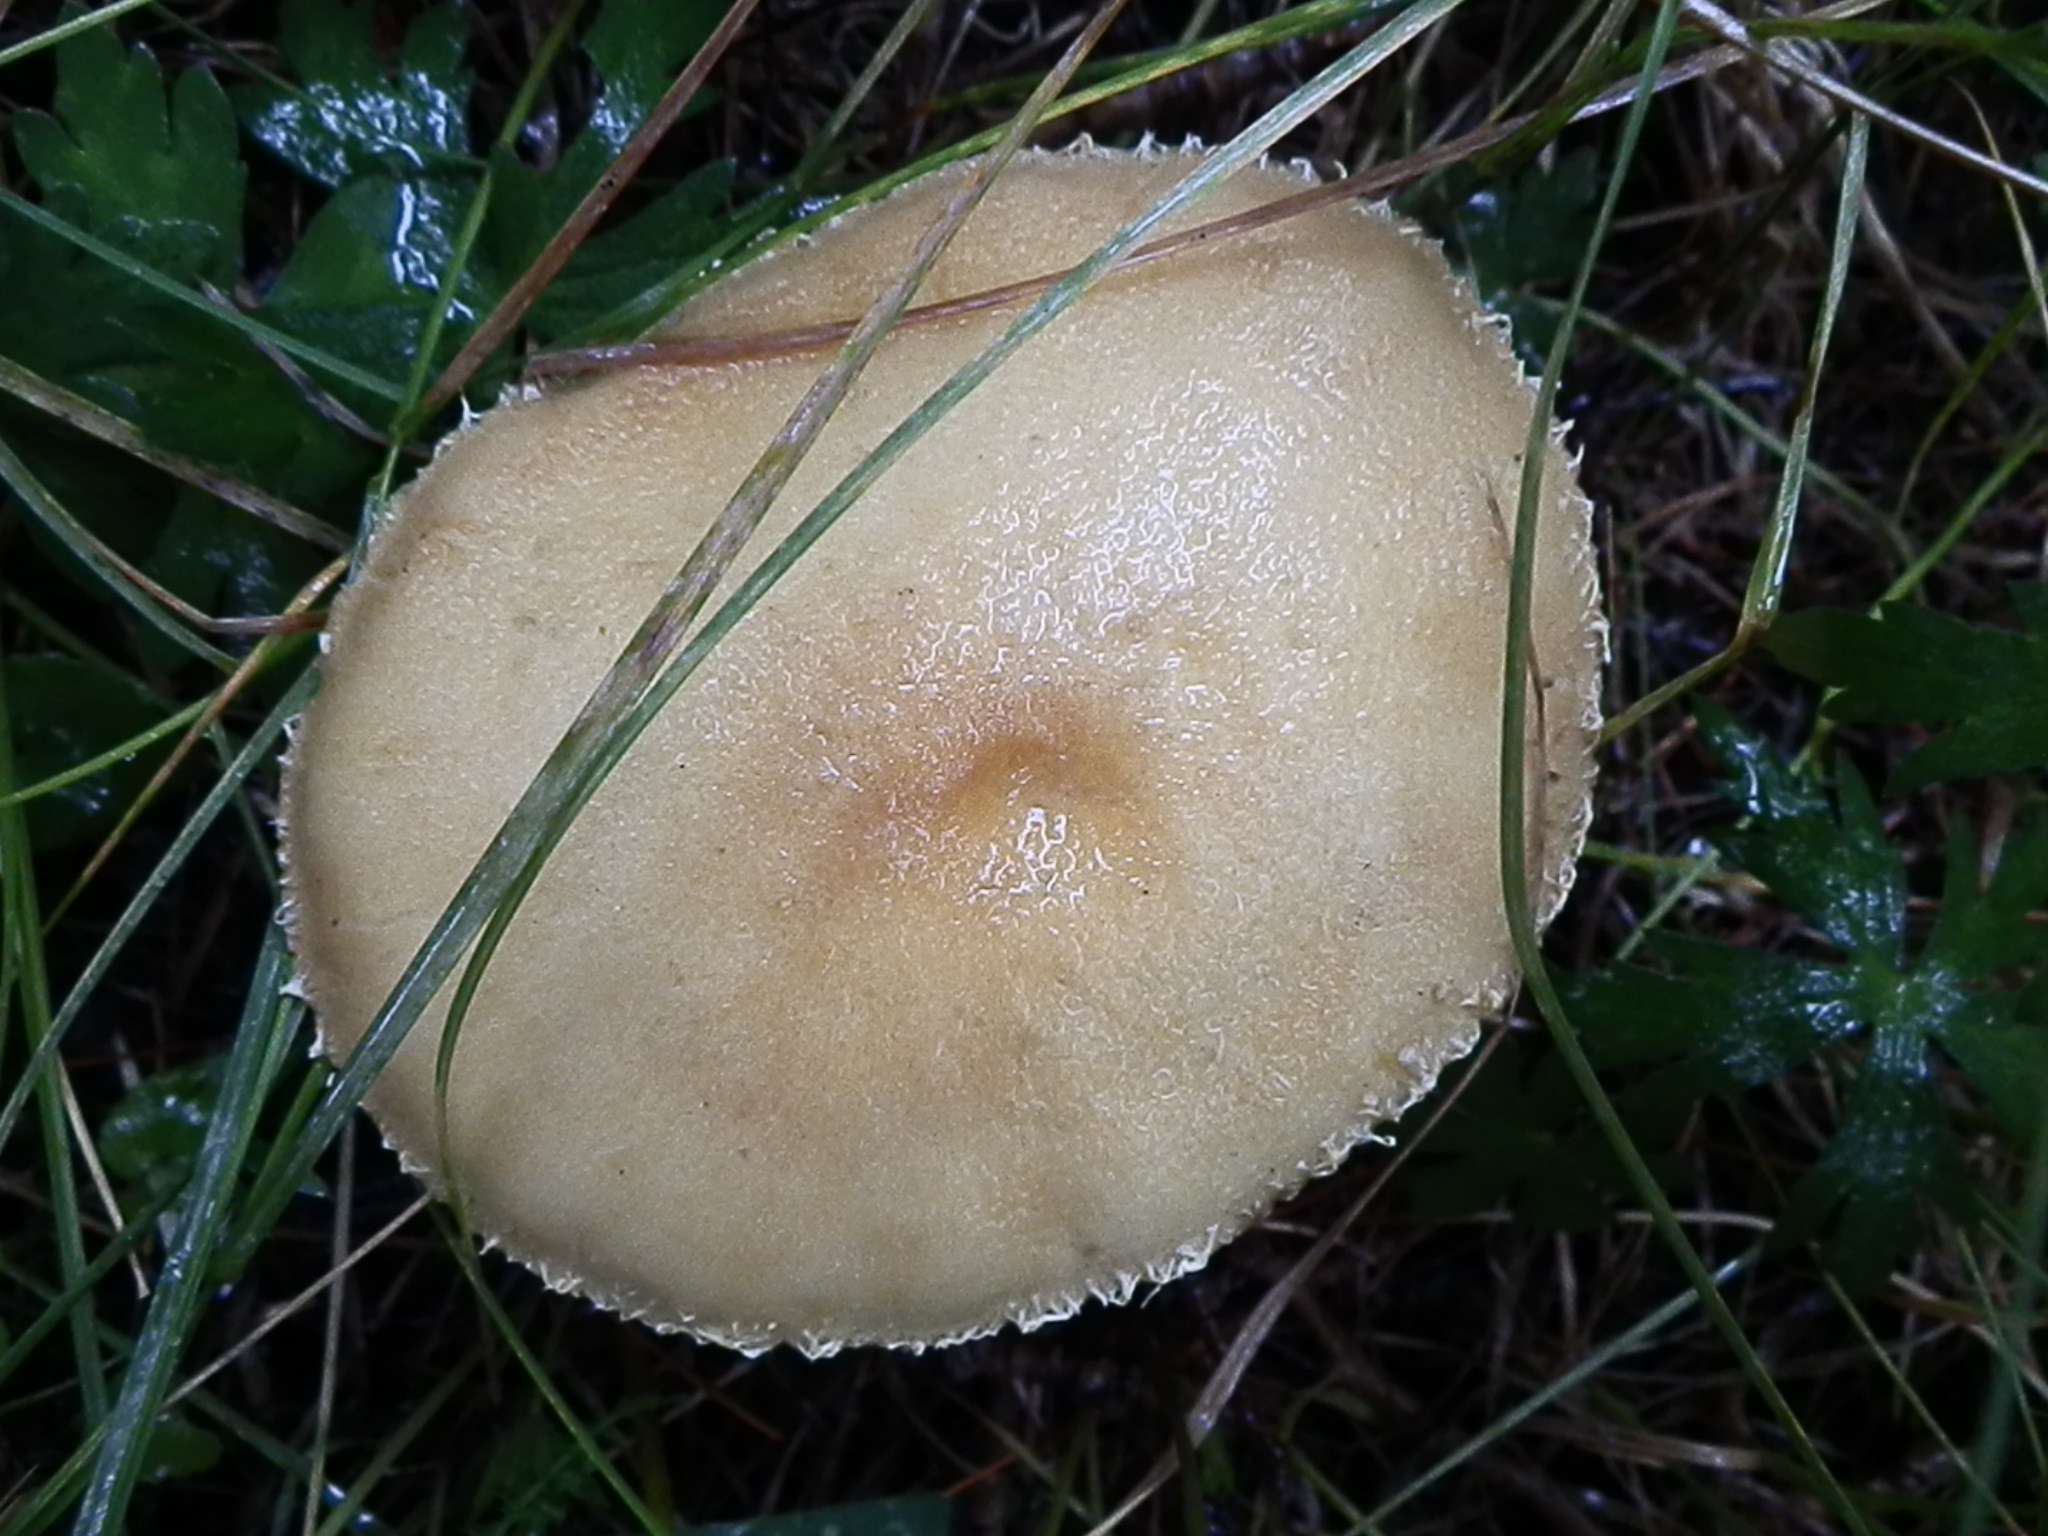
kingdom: Fungi
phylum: Basidiomycota
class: Agaricomycetes
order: Agaricales
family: Hymenogastraceae
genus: Psilocybe
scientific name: Psilocybe coronilla
